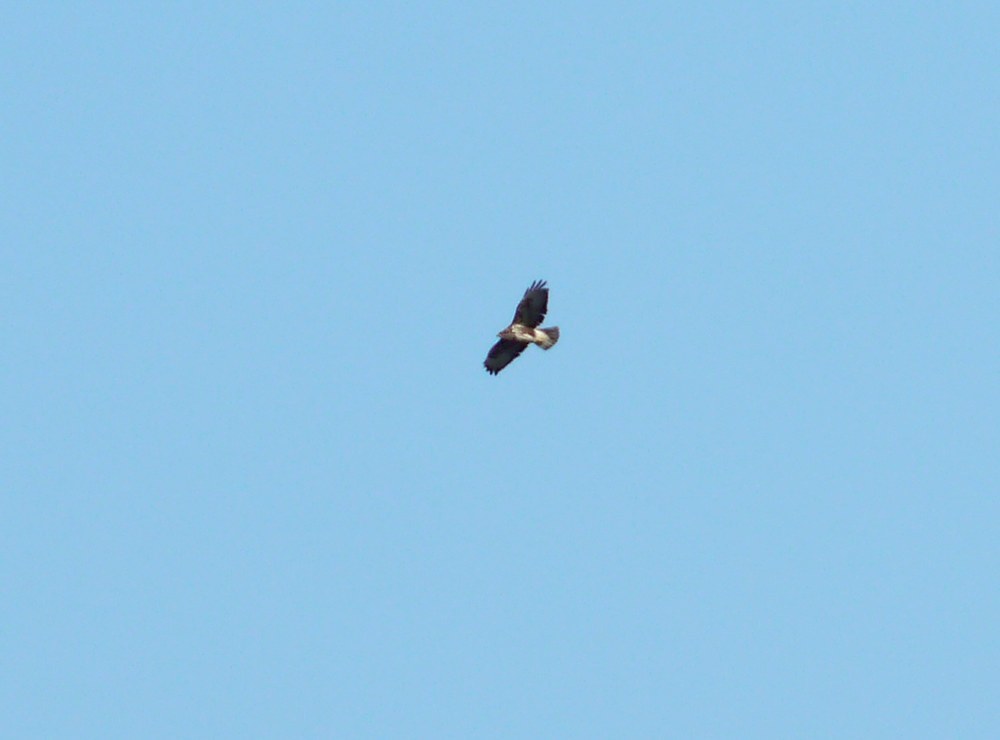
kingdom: Animalia
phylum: Chordata
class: Aves
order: Accipitriformes
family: Accipitridae
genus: Buteo
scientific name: Buteo buteo
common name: Common buzzard
